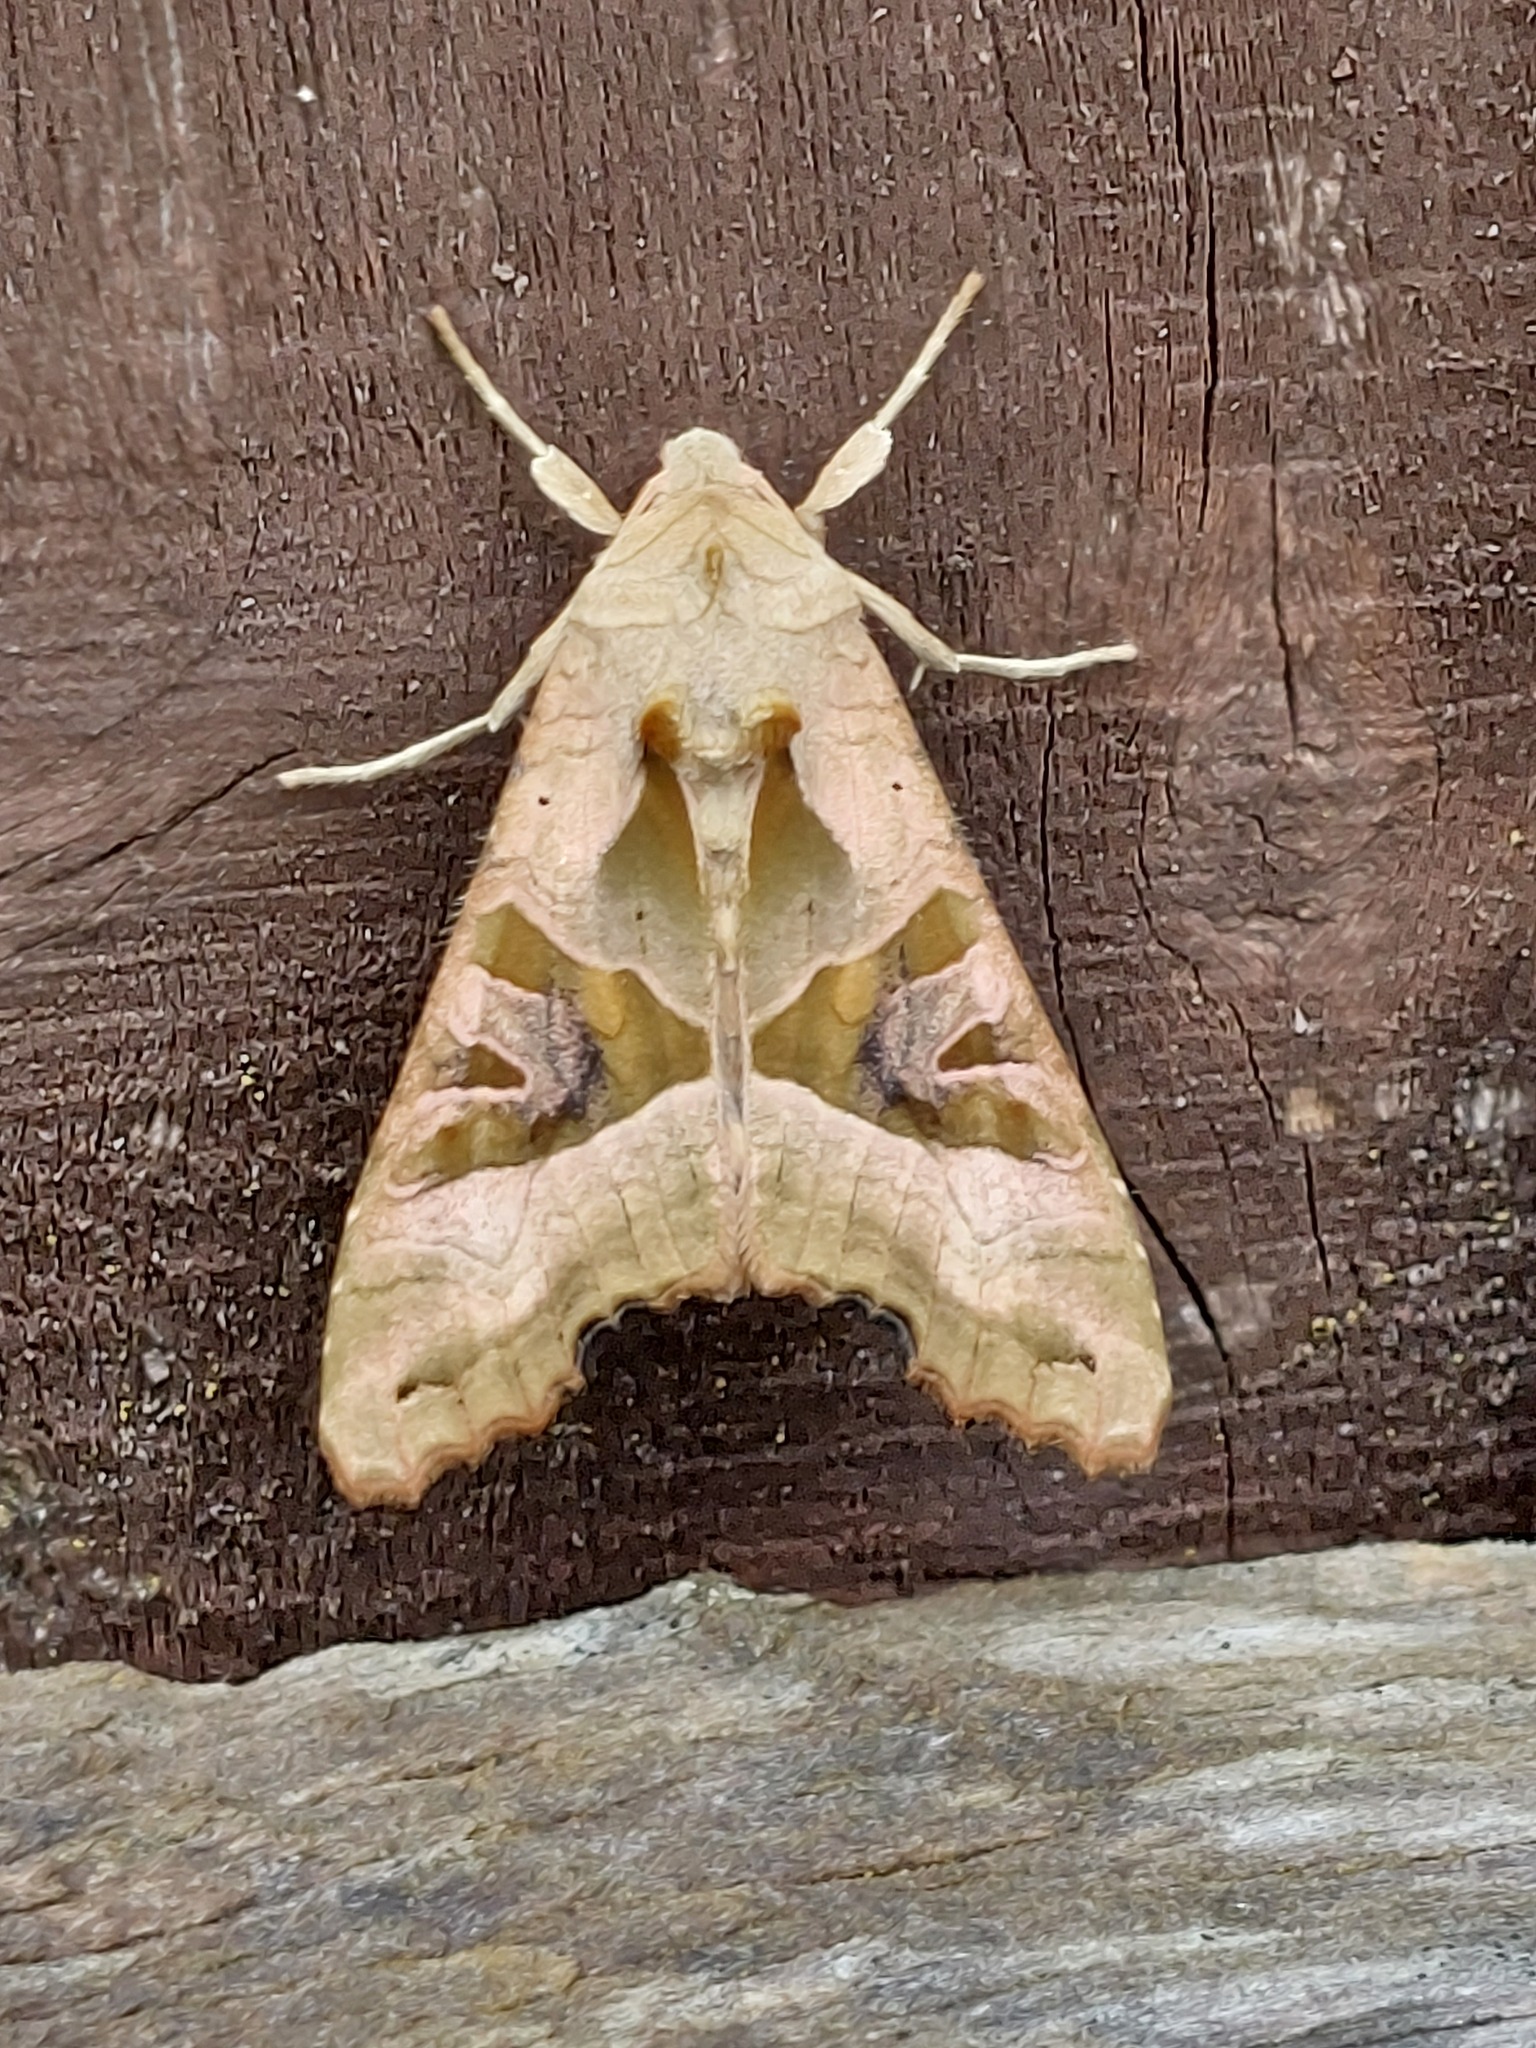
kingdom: Animalia
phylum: Arthropoda
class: Insecta
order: Lepidoptera
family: Noctuidae
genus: Phlogophora
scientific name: Phlogophora meticulosa
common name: Angle shades
